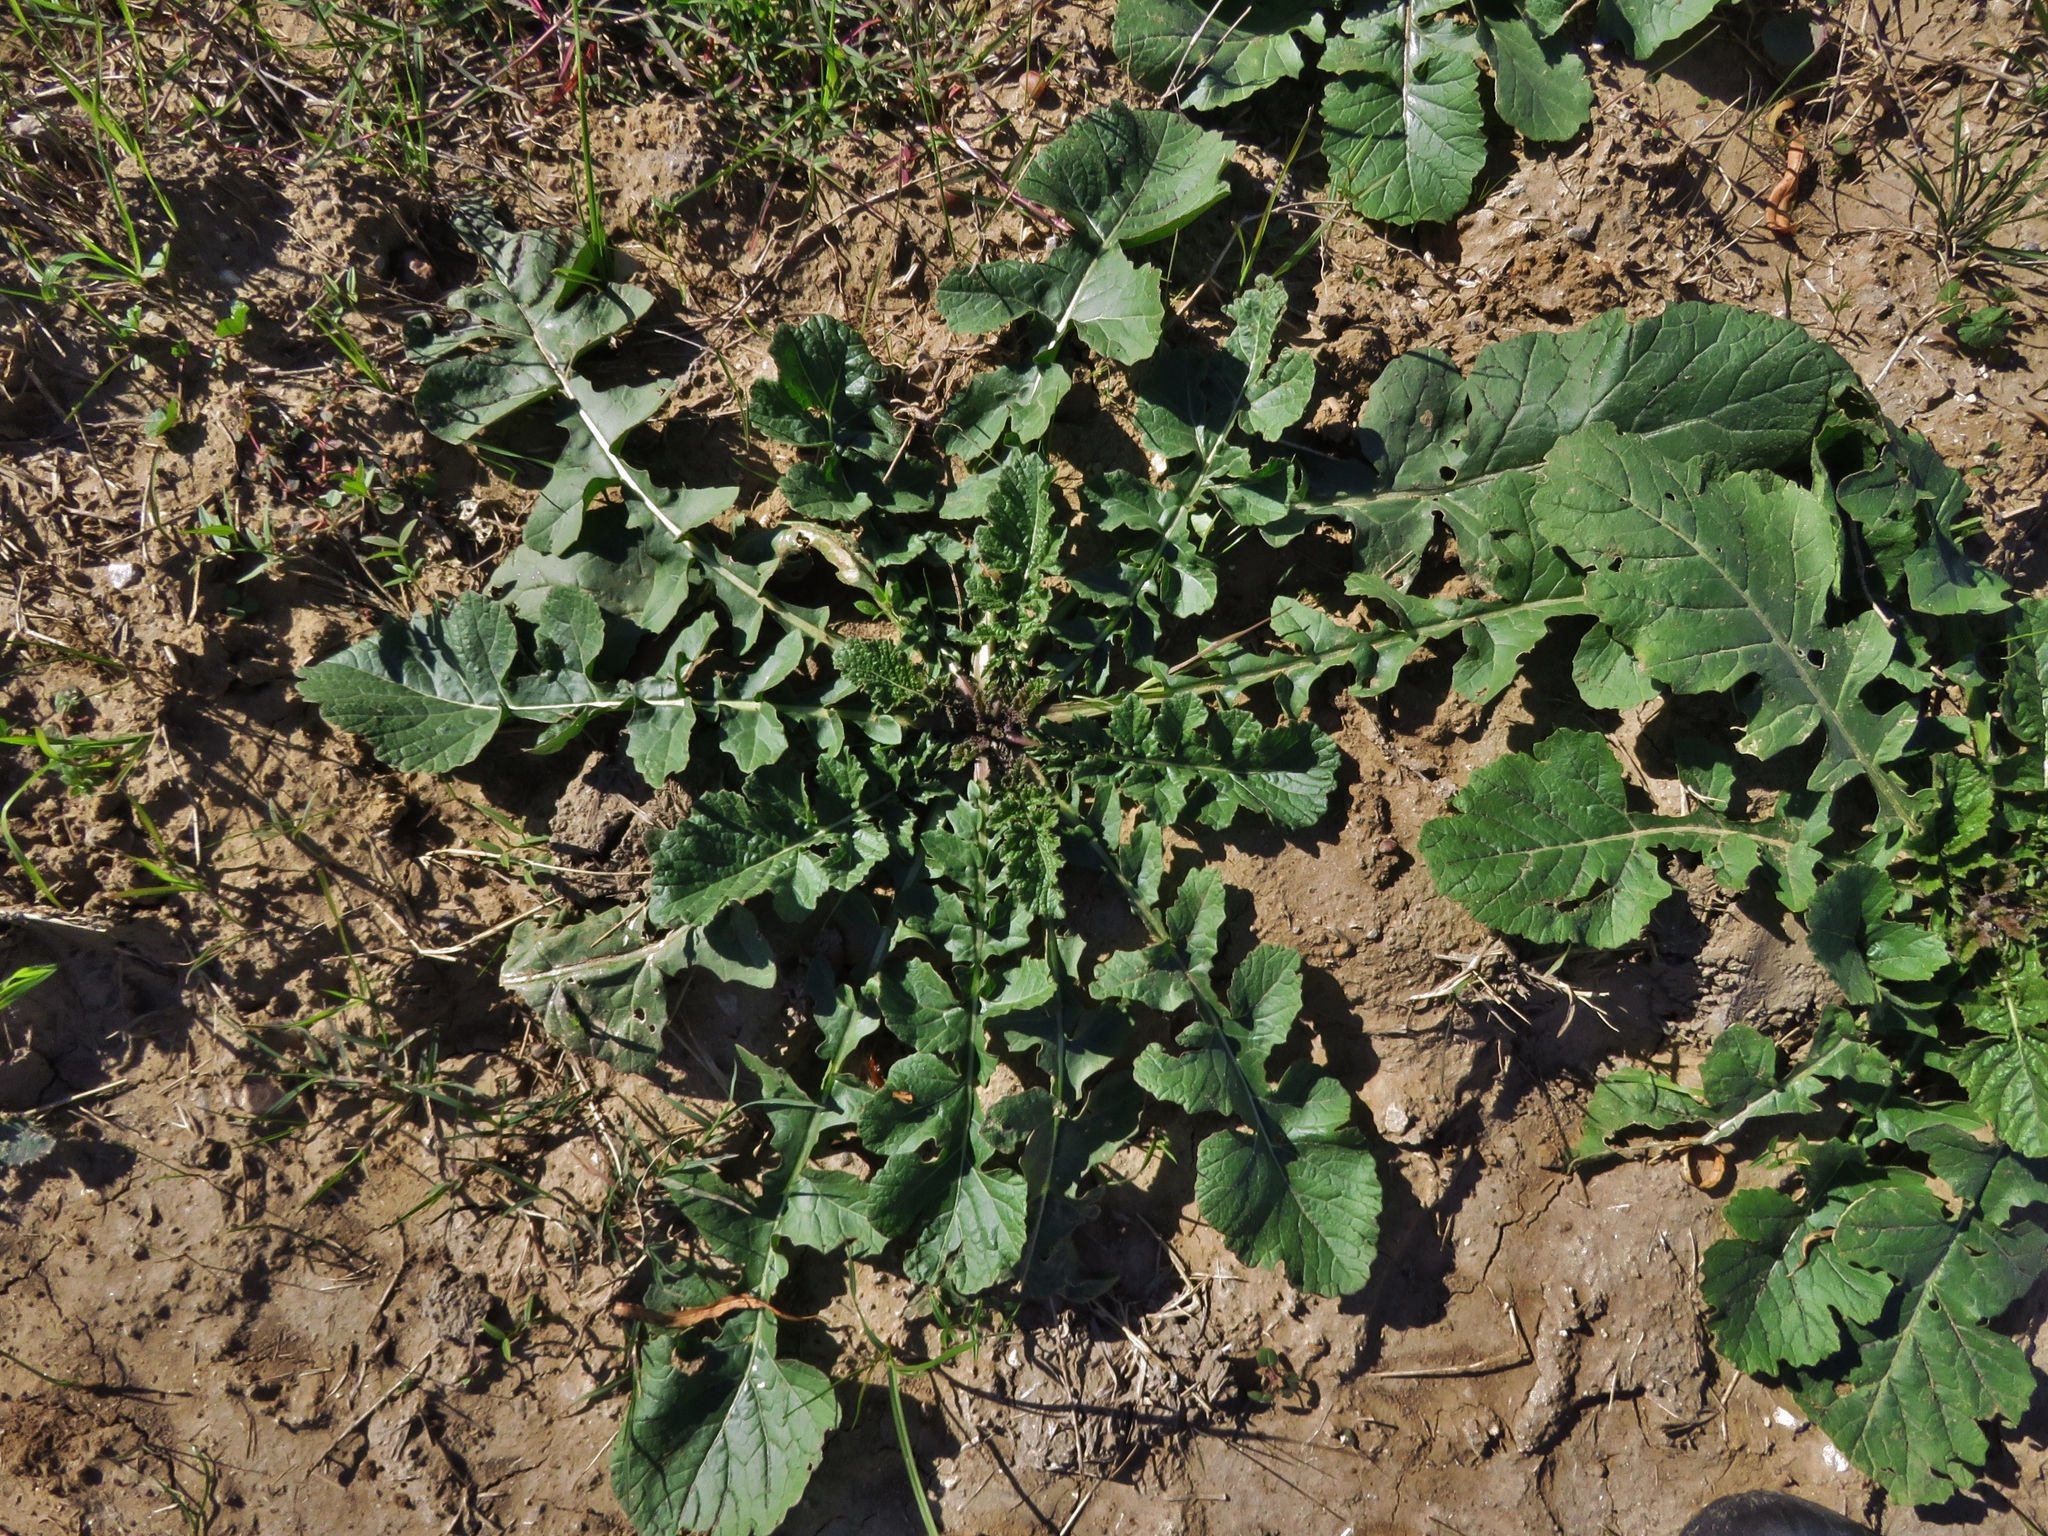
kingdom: Plantae
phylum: Tracheophyta
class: Magnoliopsida
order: Brassicales
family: Brassicaceae
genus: Rapistrum
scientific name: Rapistrum rugosum
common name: Annual bastardcabbage
